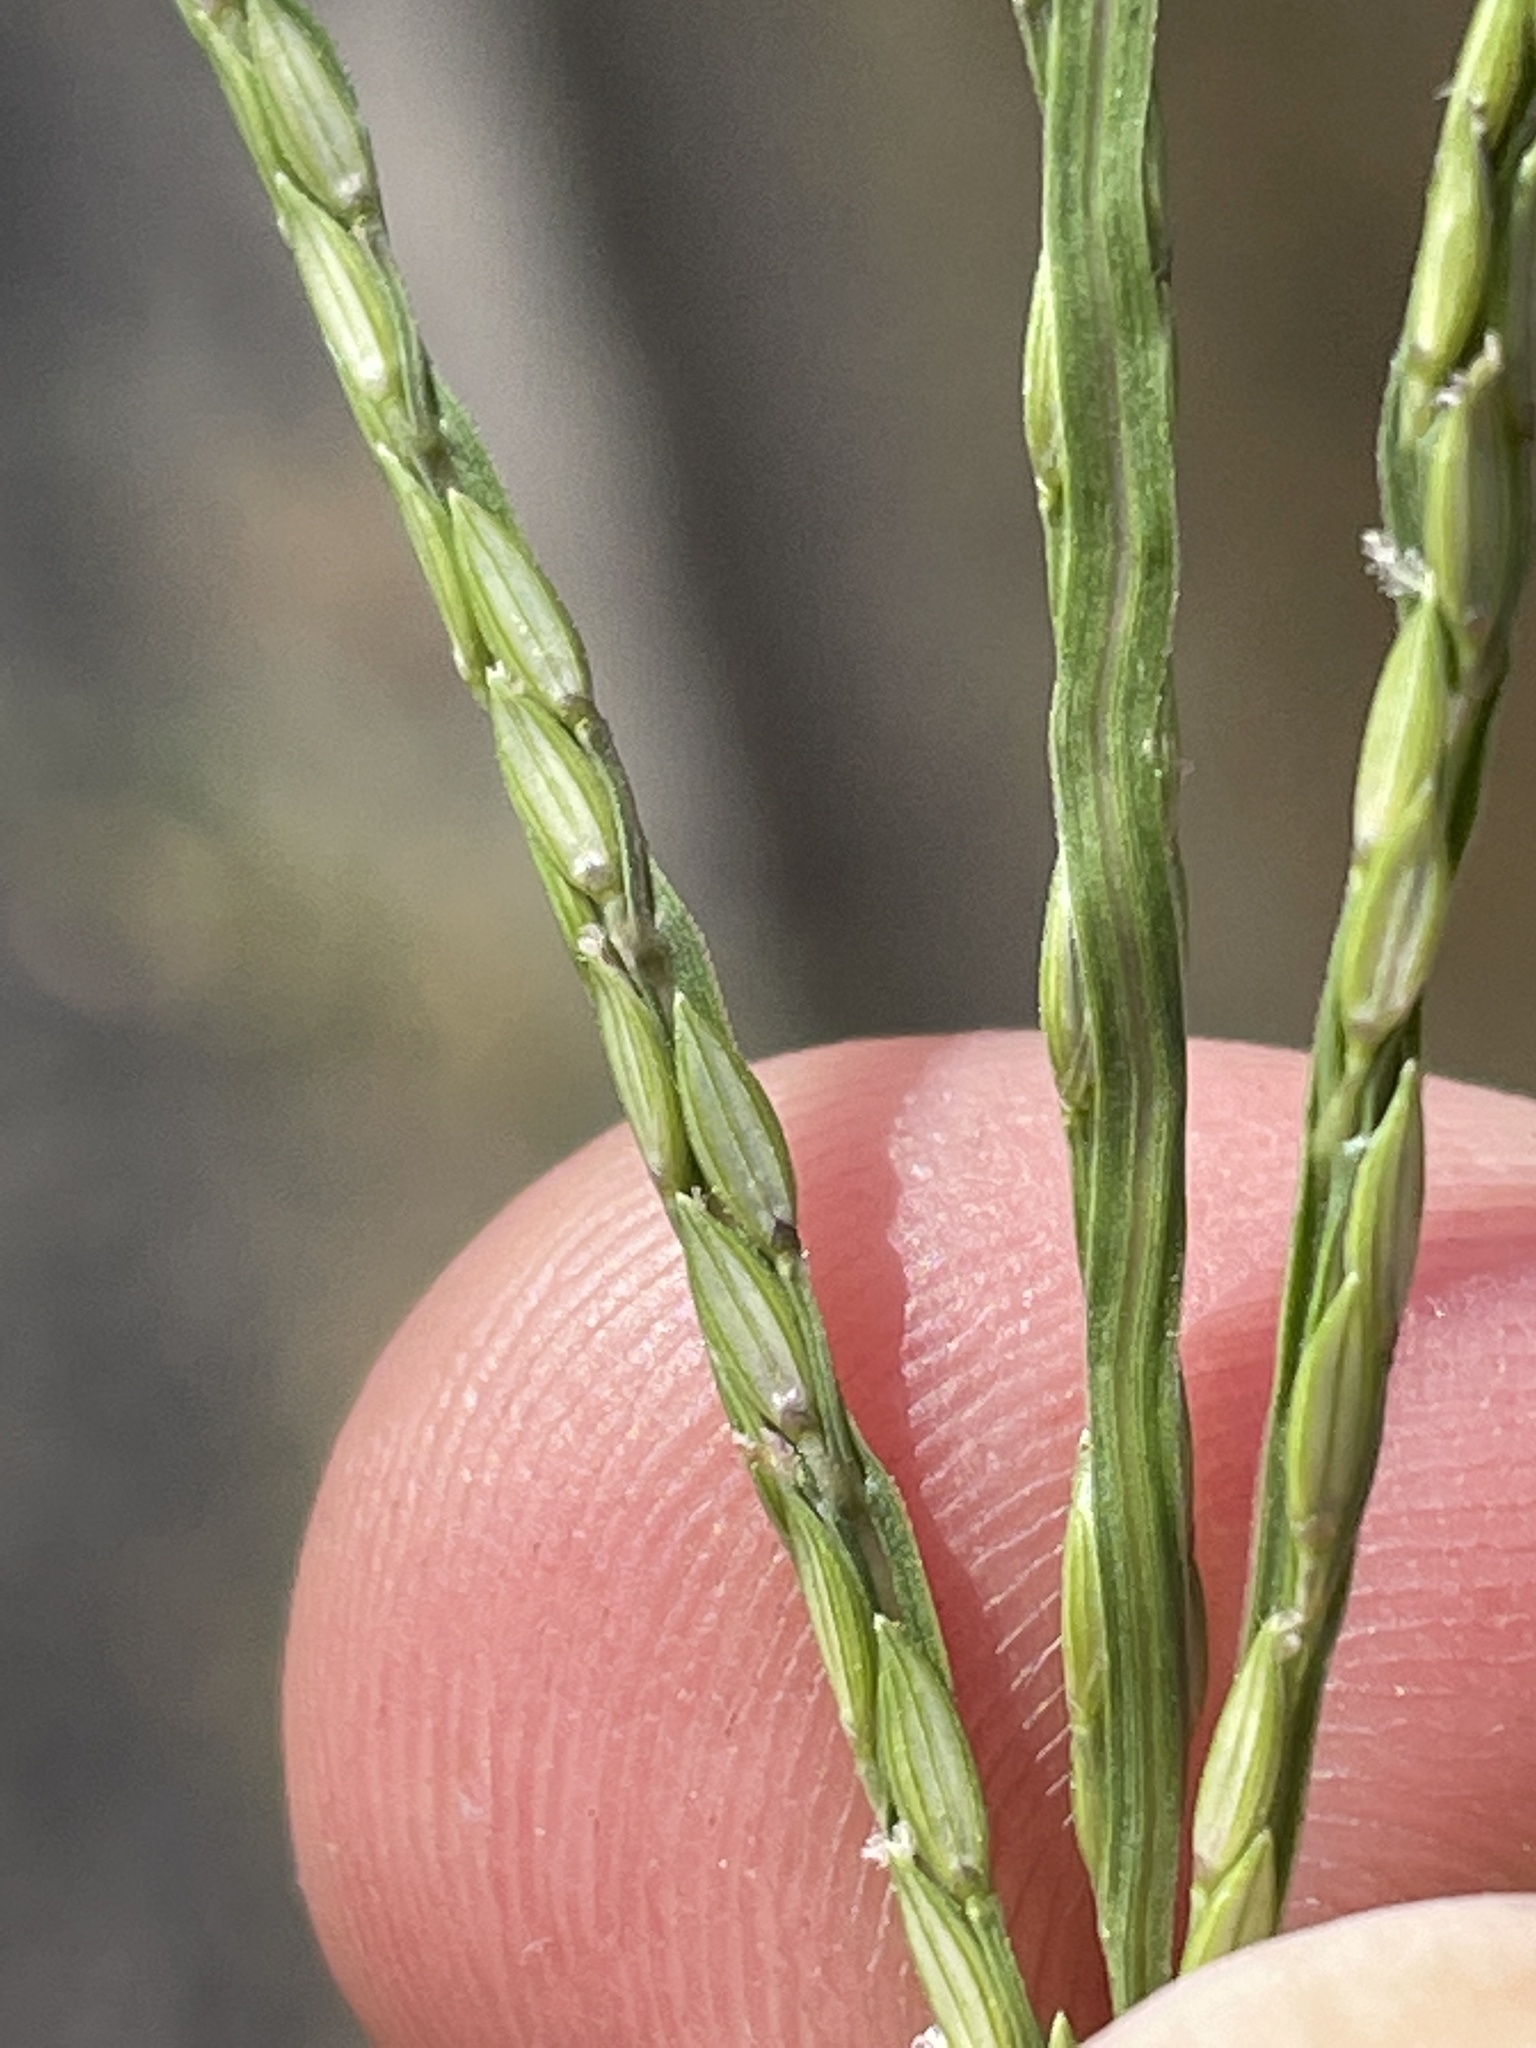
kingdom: Plantae
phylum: Tracheophyta
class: Liliopsida
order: Poales
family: Poaceae
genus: Digitaria
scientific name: Digitaria sanguinalis
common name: Hairy crabgrass
